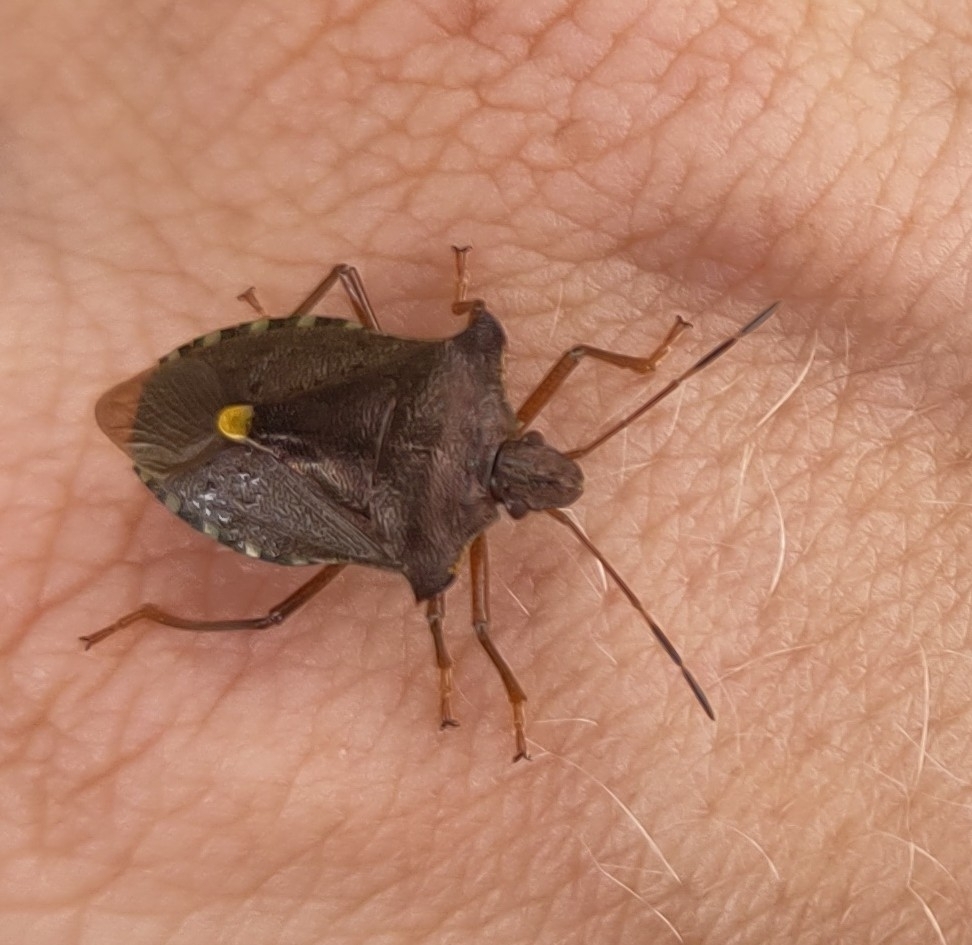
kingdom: Animalia
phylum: Arthropoda
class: Insecta
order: Hemiptera
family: Pentatomidae
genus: Pentatoma
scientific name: Pentatoma rufipes
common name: Forest bug
